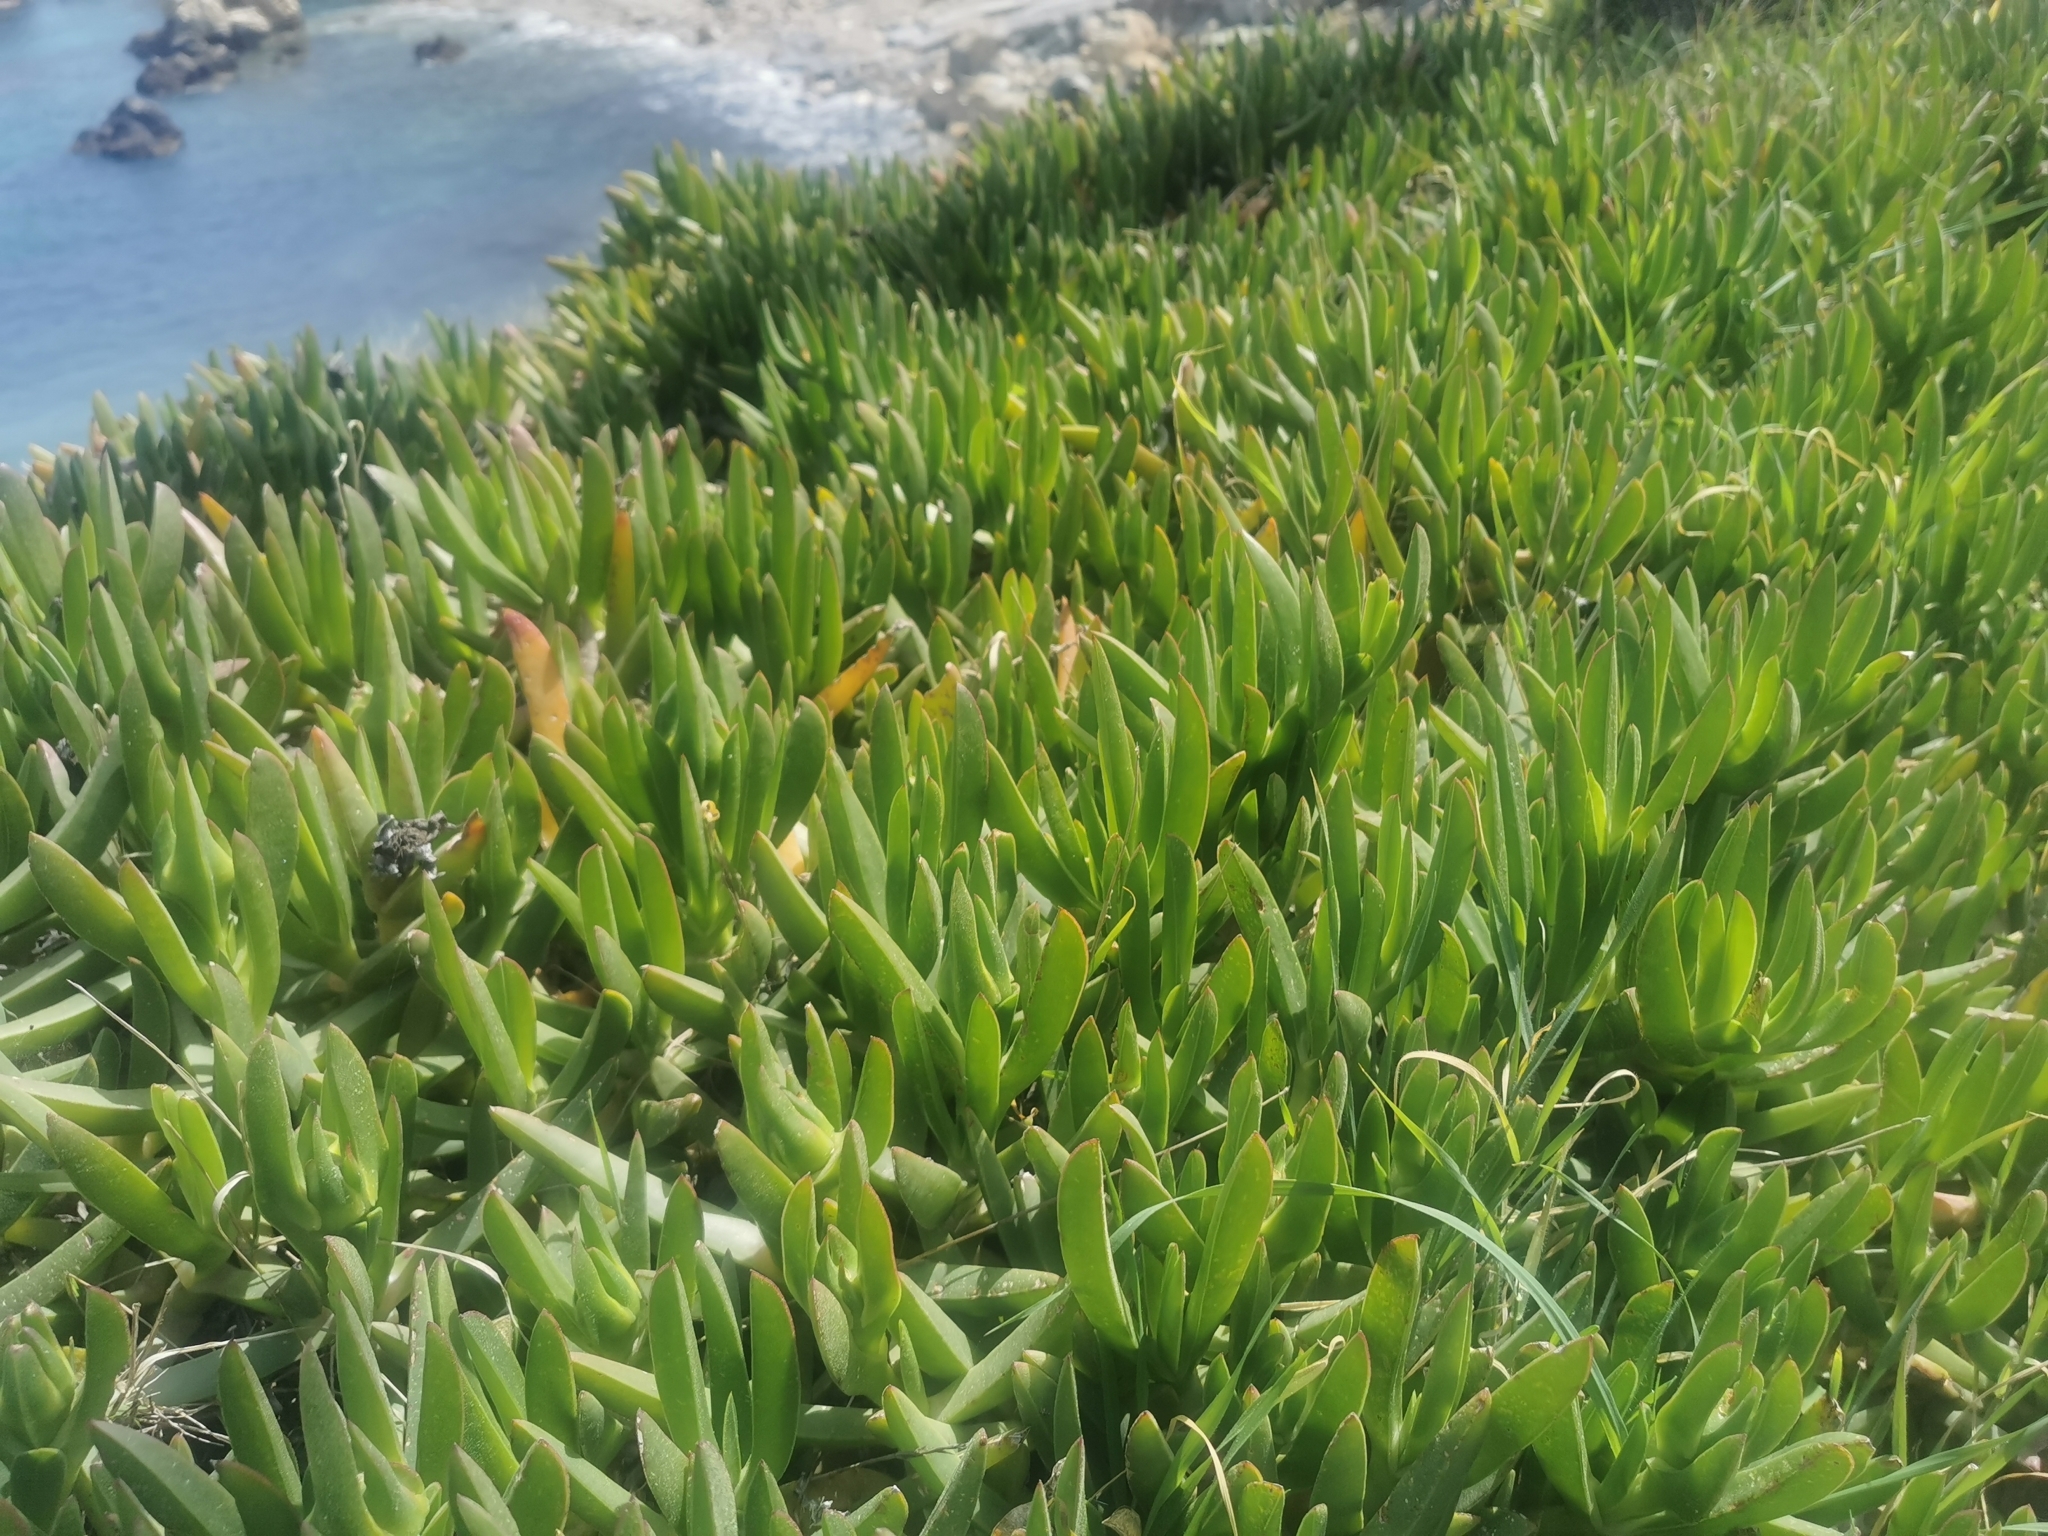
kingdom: Plantae
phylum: Tracheophyta
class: Magnoliopsida
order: Caryophyllales
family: Aizoaceae
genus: Carpobrotus
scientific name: Carpobrotus acinaciformis
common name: Sally-my-handsome
